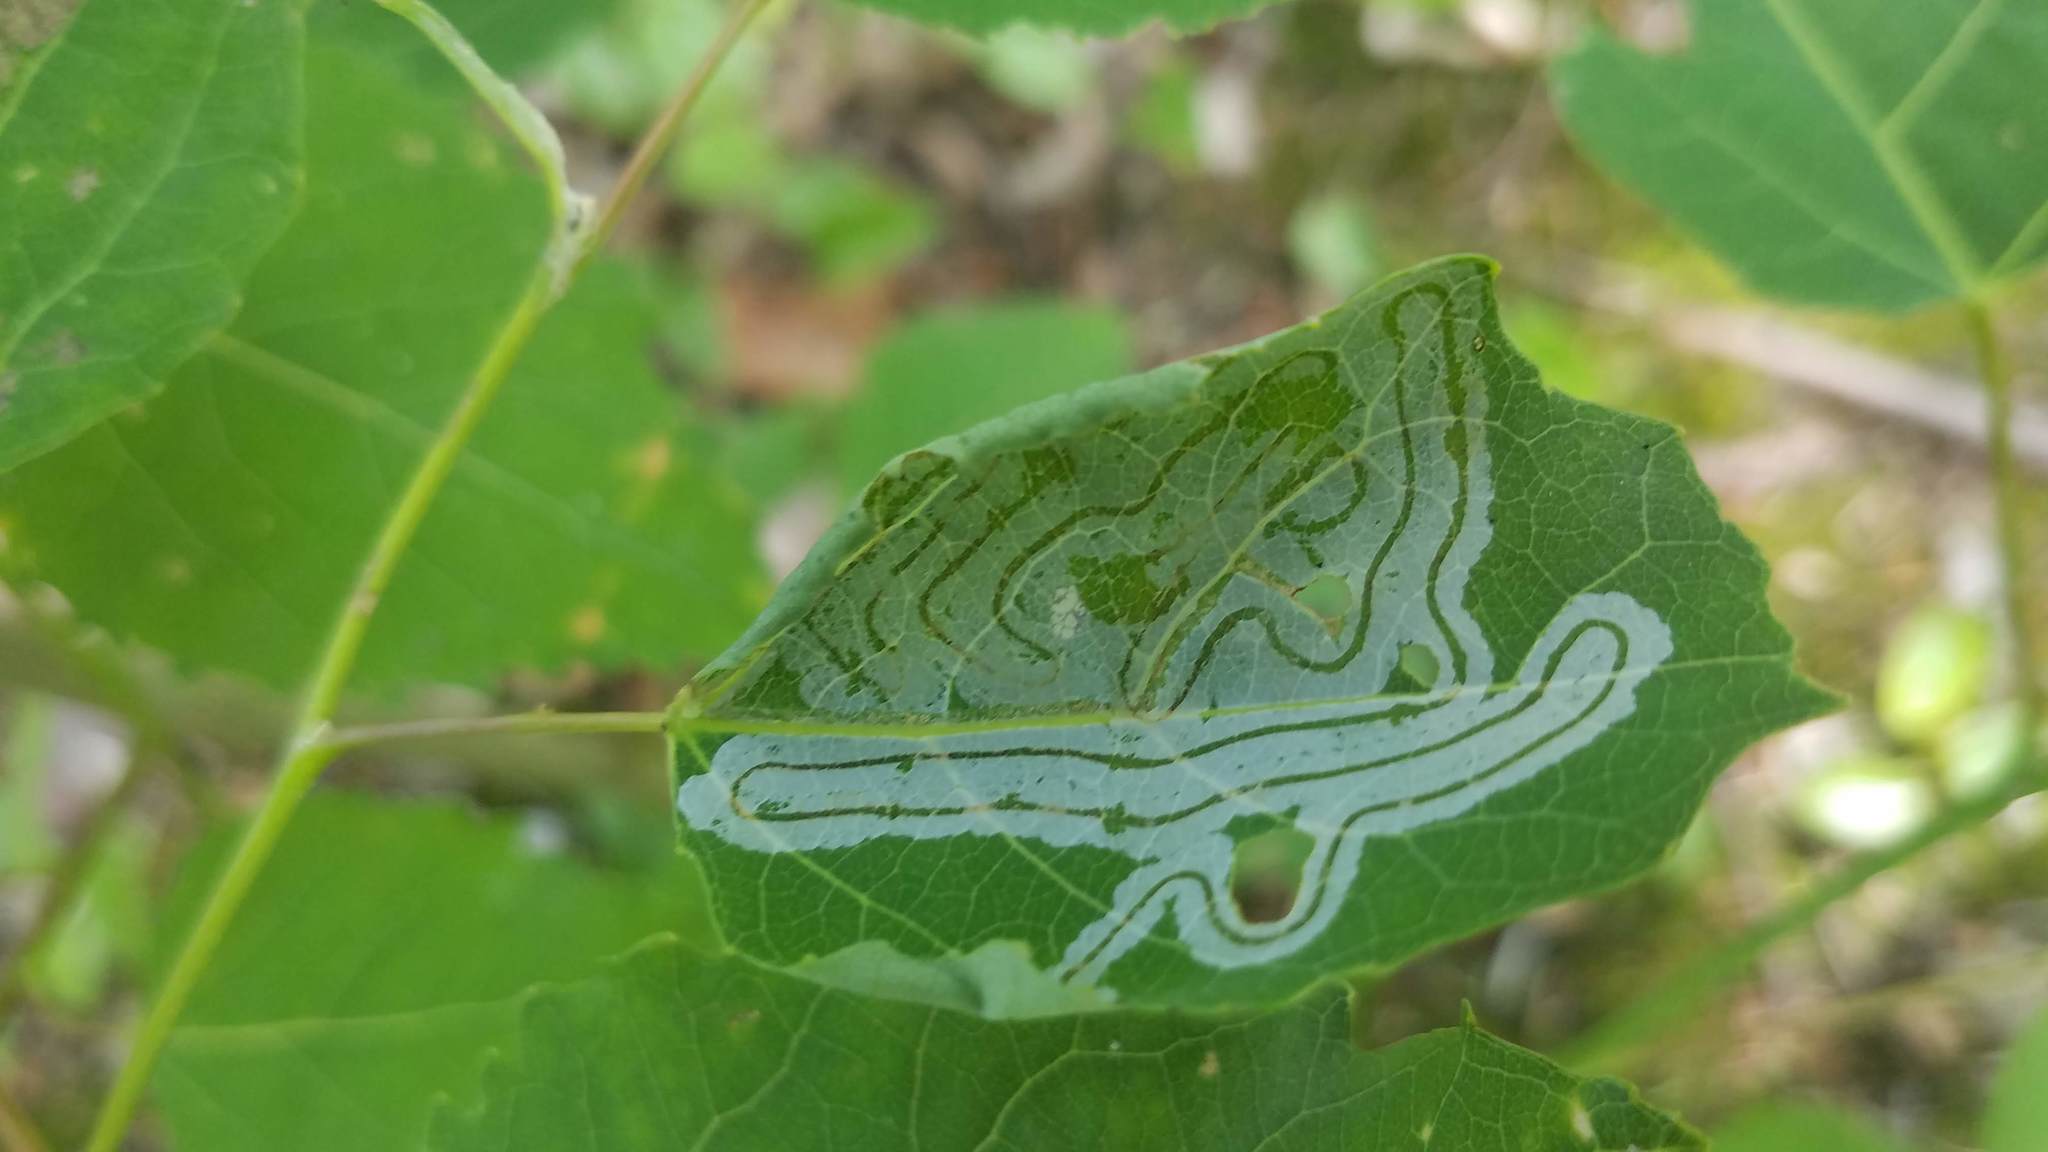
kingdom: Animalia
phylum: Arthropoda
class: Insecta
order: Lepidoptera
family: Gracillariidae
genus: Phyllocnistis
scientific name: Phyllocnistis populiella
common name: Aspen serpentine leafminer moth
